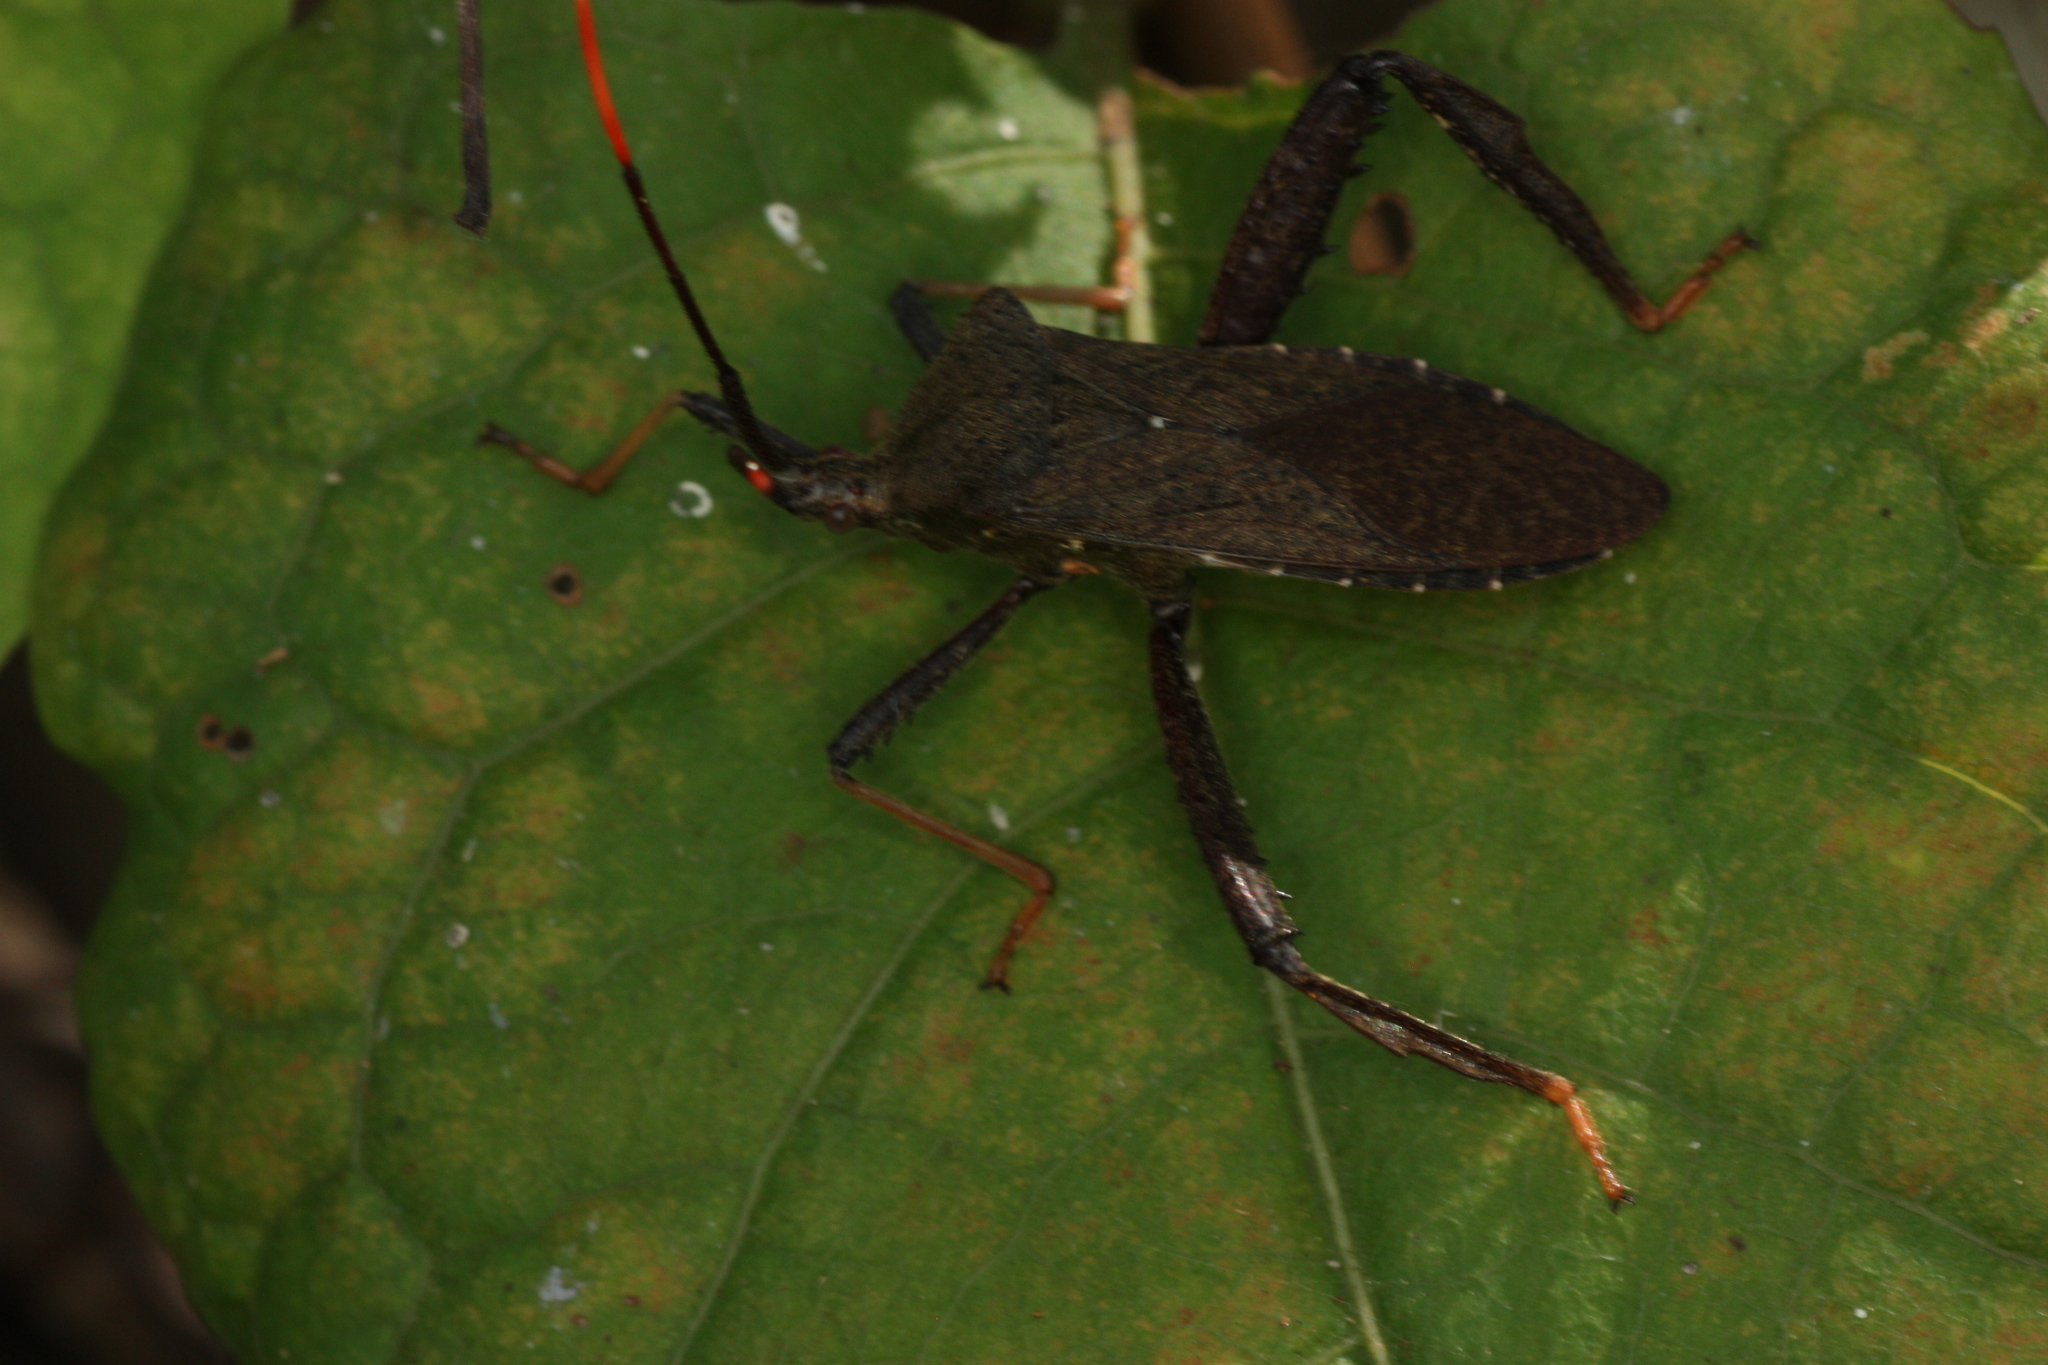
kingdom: Animalia
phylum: Arthropoda
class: Insecta
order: Hemiptera
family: Coreidae
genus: Acanthocephala
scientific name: Acanthocephala terminalis
